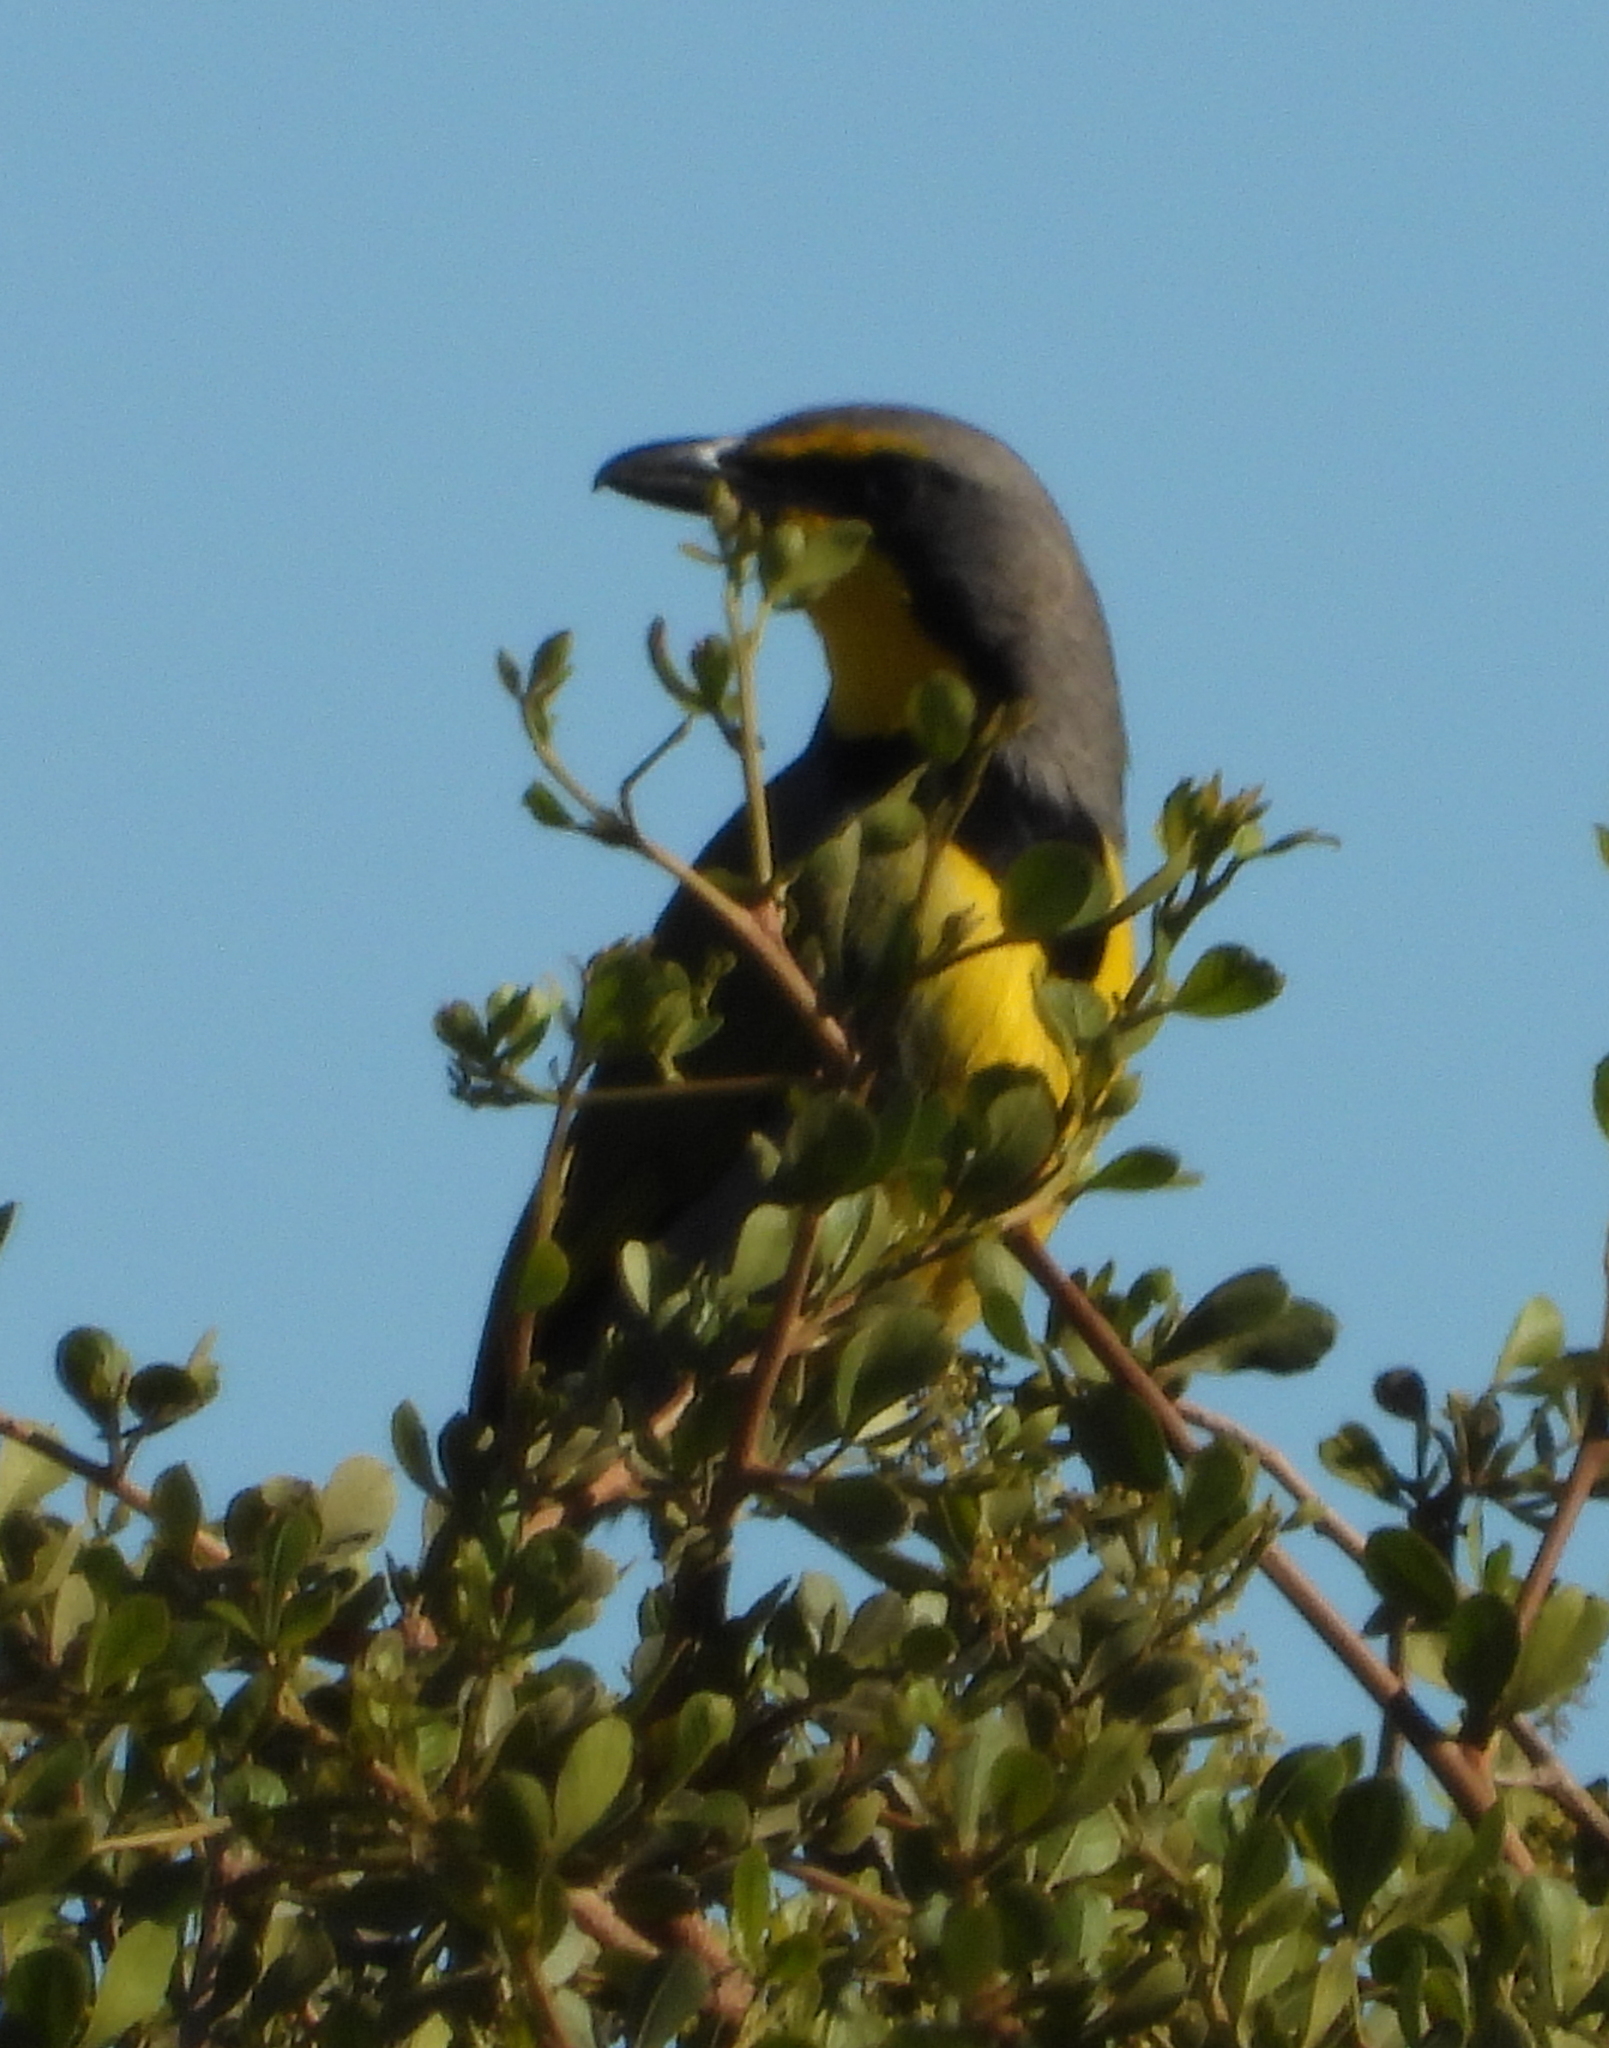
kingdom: Animalia
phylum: Chordata
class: Aves
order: Passeriformes
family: Malaconotidae
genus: Telophorus
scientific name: Telophorus zeylonus
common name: Bokmakierie
